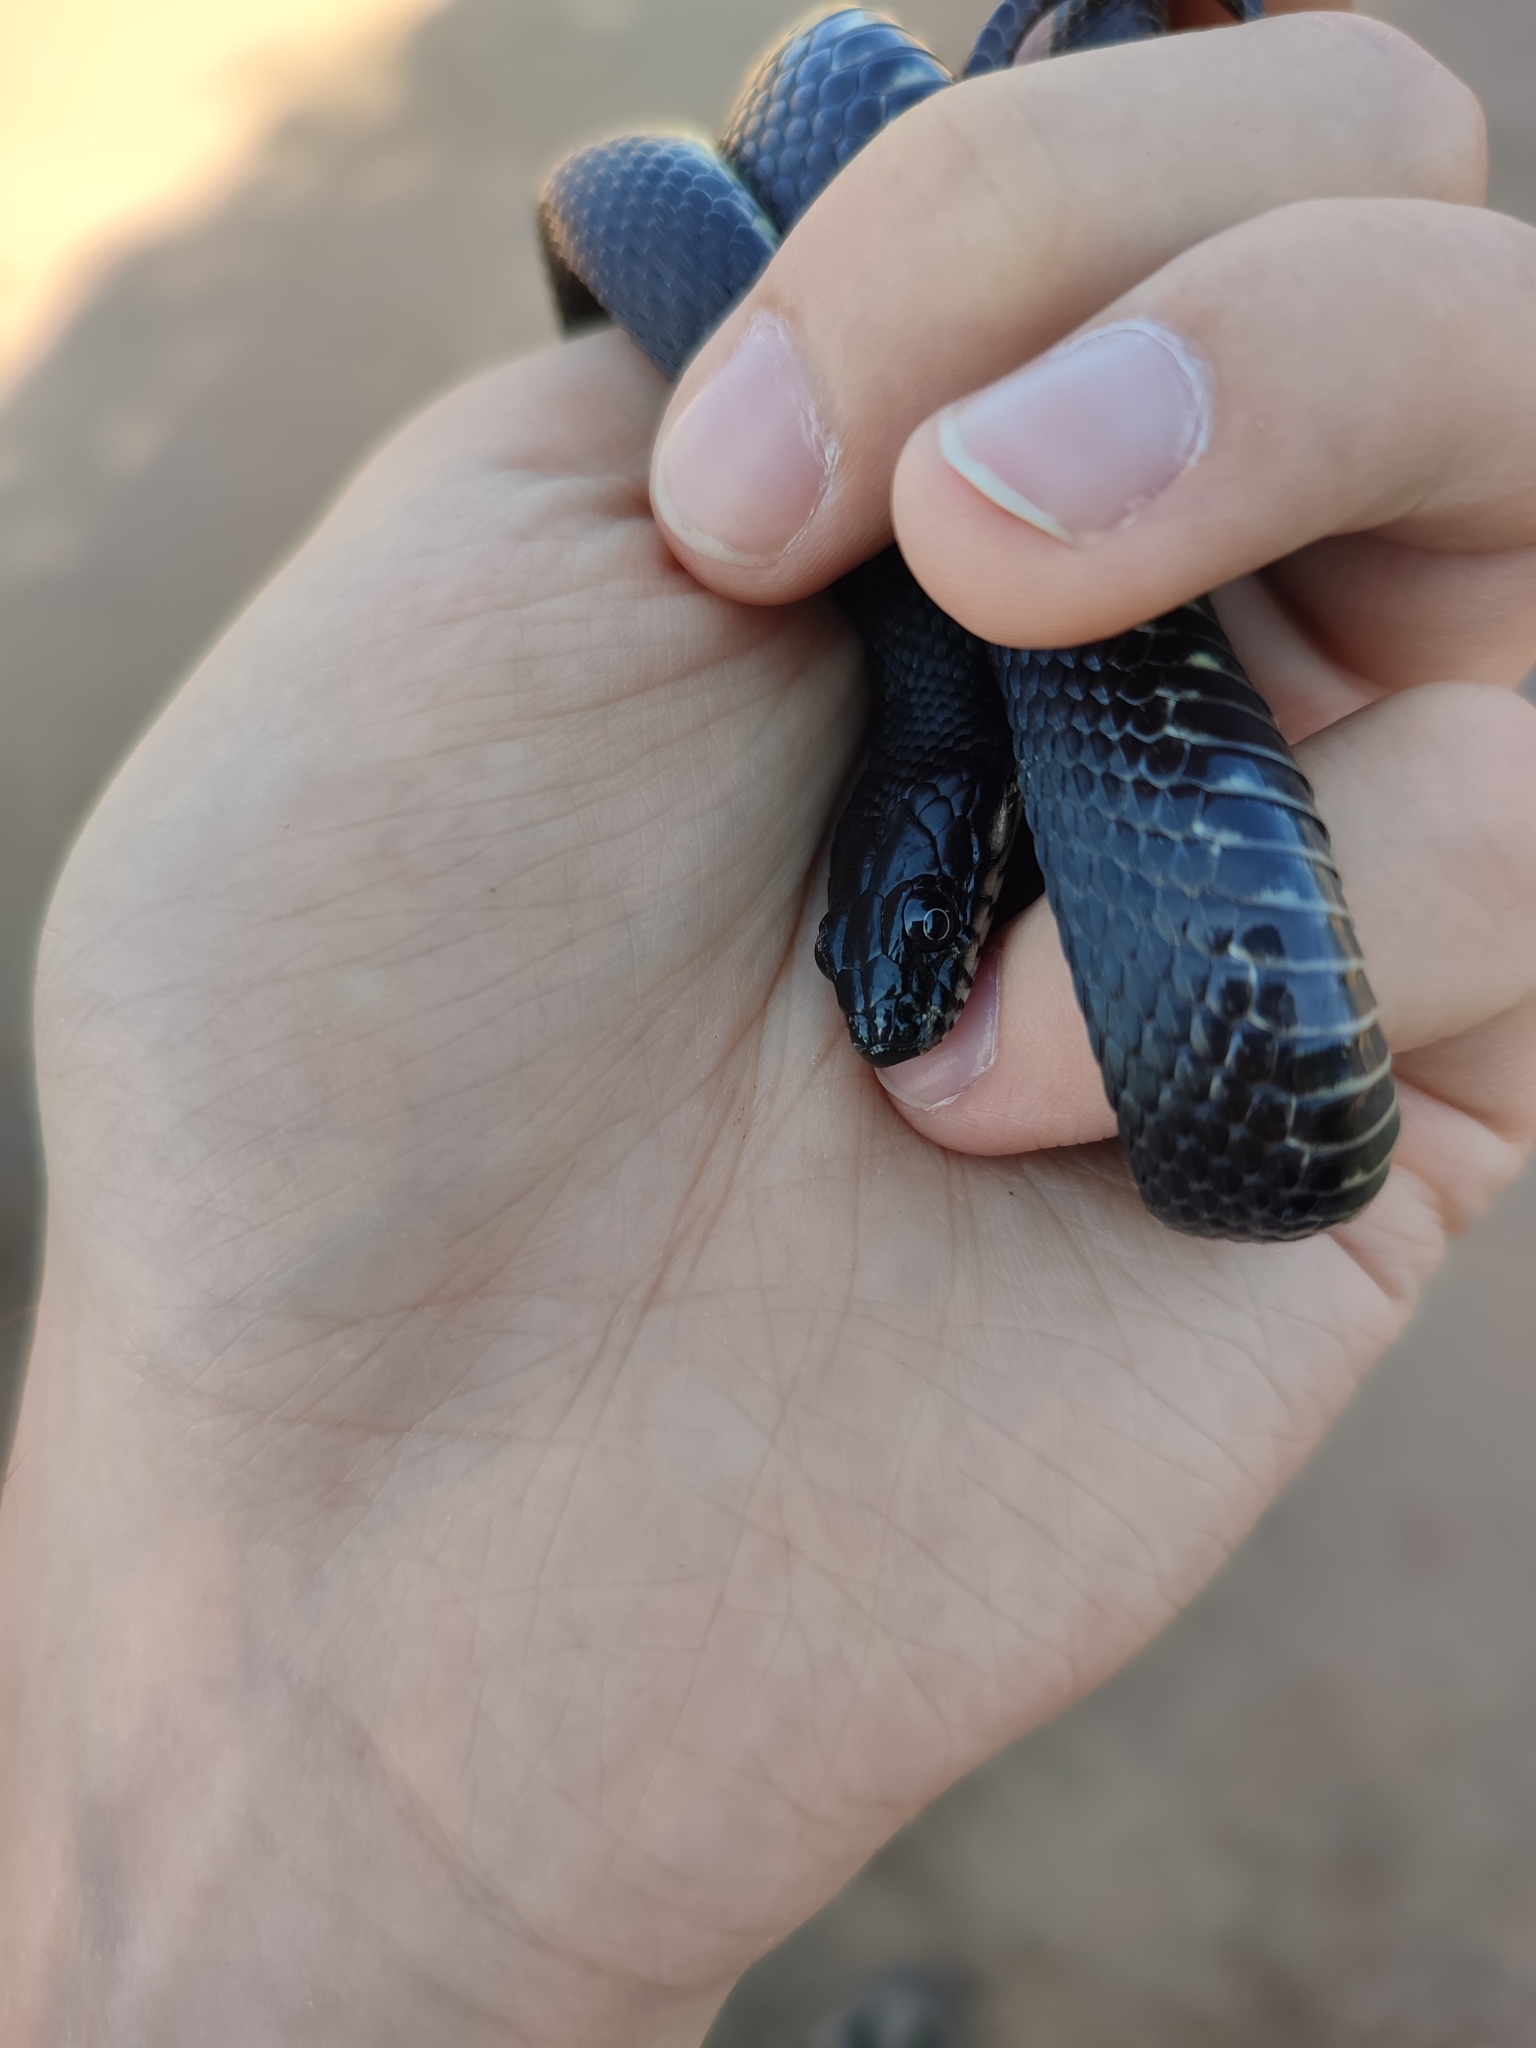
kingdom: Animalia
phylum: Chordata
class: Squamata
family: Colubridae
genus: Natrix
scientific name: Natrix tessellata
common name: Dice snake
